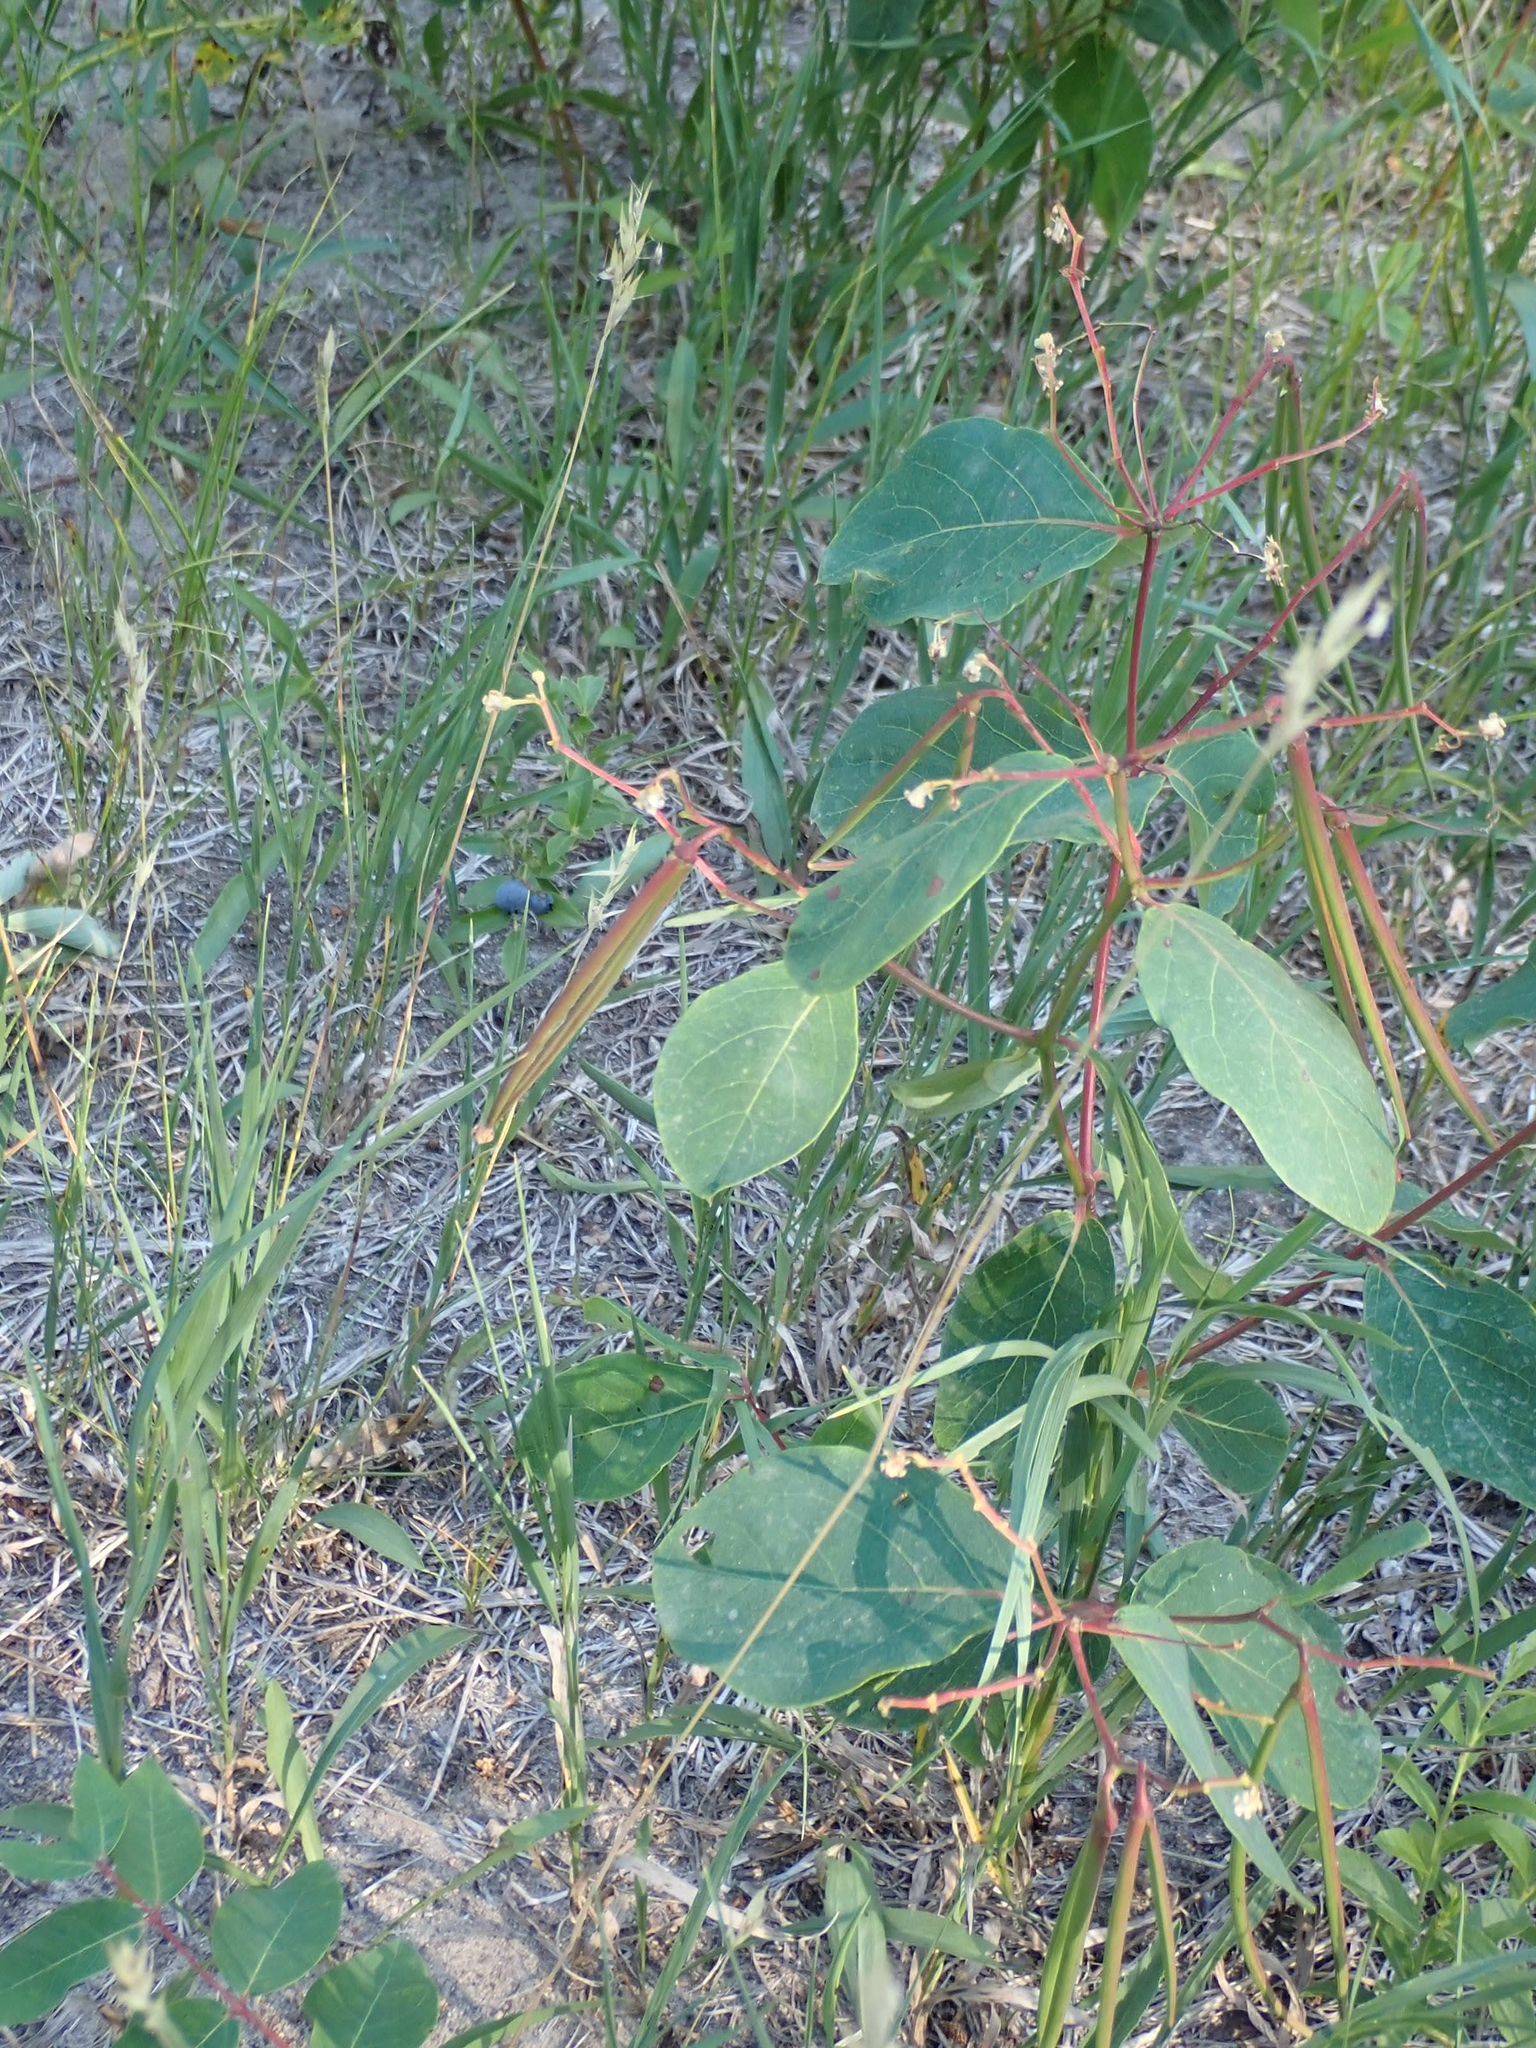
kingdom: Plantae
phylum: Tracheophyta
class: Magnoliopsida
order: Gentianales
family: Apocynaceae
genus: Apocynum
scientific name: Apocynum cannabinum
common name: Hemp dogbane
